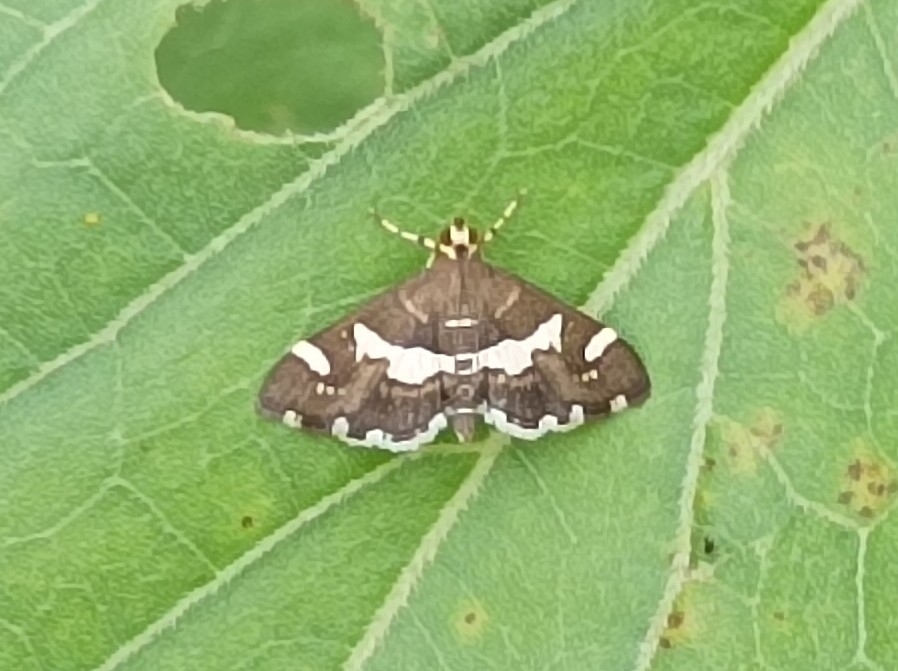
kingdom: Animalia
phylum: Arthropoda
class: Insecta
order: Lepidoptera
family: Crambidae
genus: Spoladea
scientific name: Spoladea recurvalis
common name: Beet webworm moth
